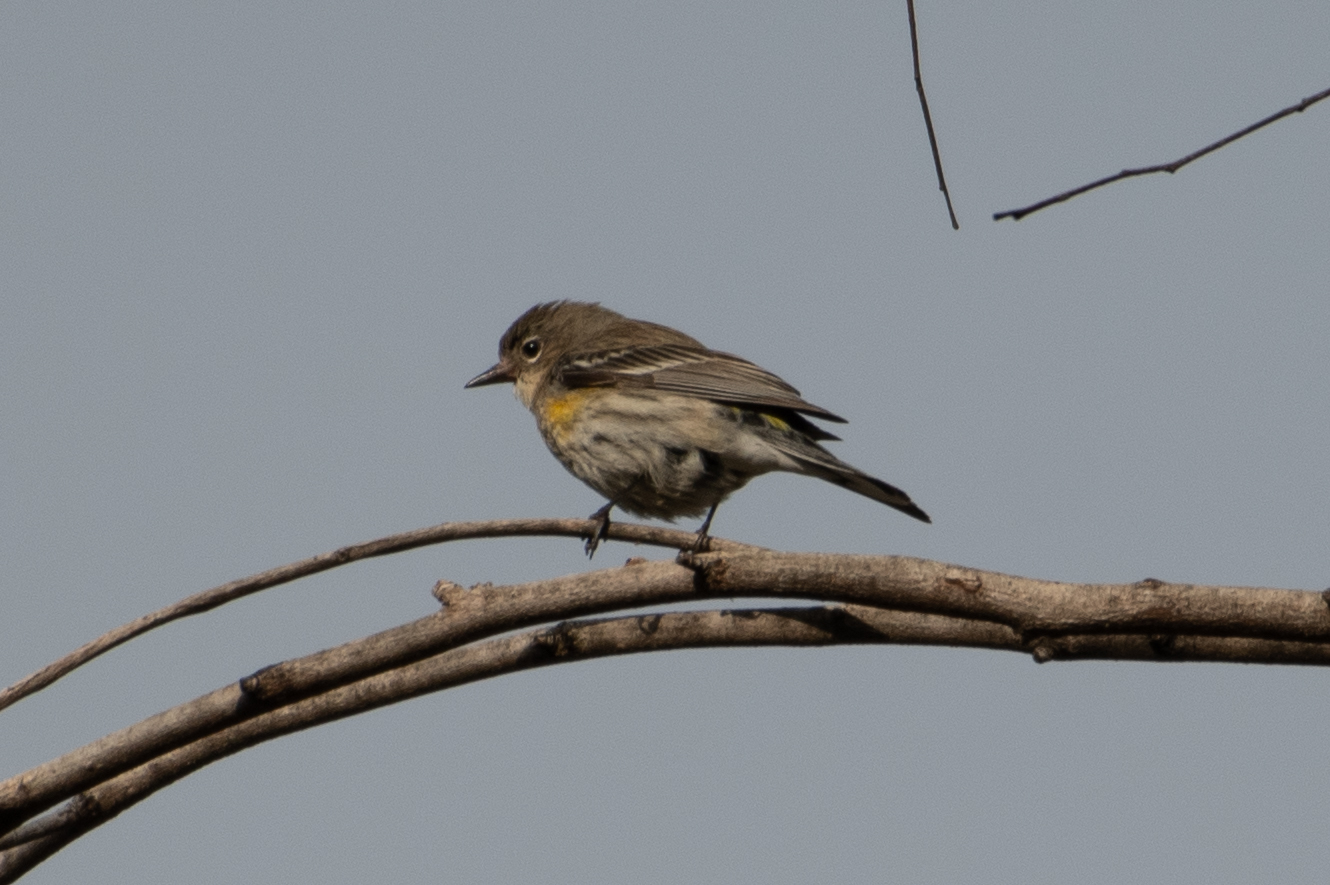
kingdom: Animalia
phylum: Chordata
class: Aves
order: Passeriformes
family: Parulidae
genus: Setophaga
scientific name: Setophaga coronata
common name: Myrtle warbler
